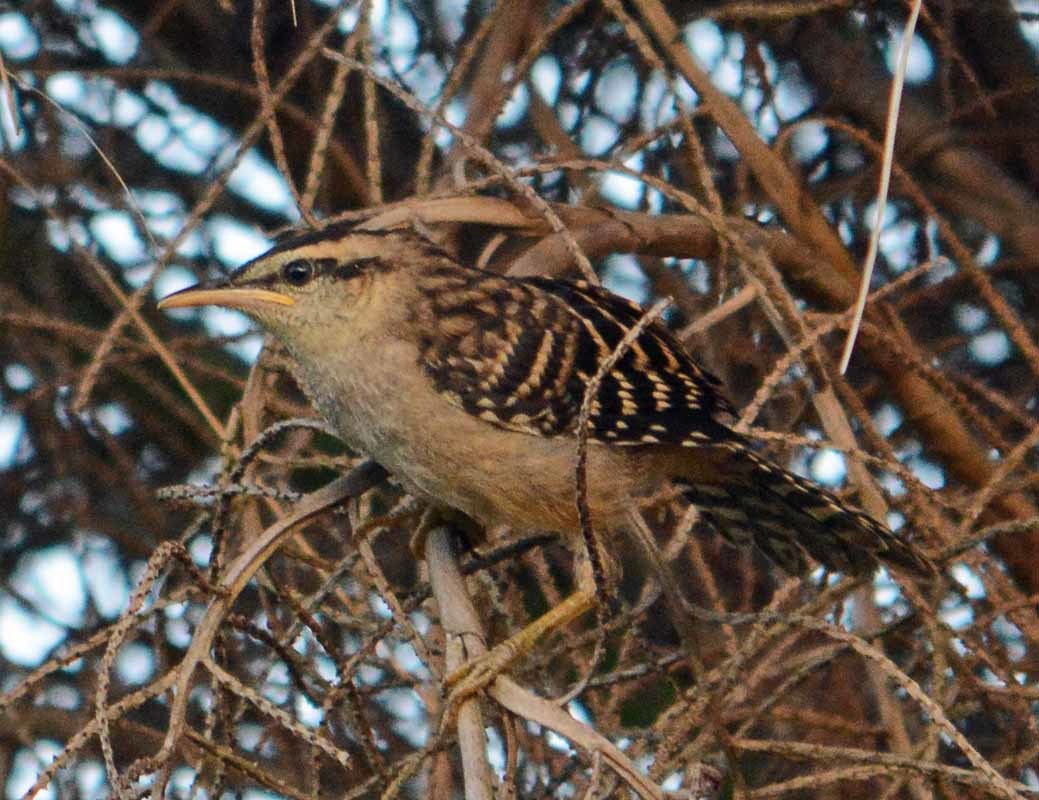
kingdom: Animalia
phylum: Chordata
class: Aves
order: Passeriformes
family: Troglodytidae
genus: Campylorhynchus
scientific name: Campylorhynchus rufinucha
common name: Rufous-naped wren
